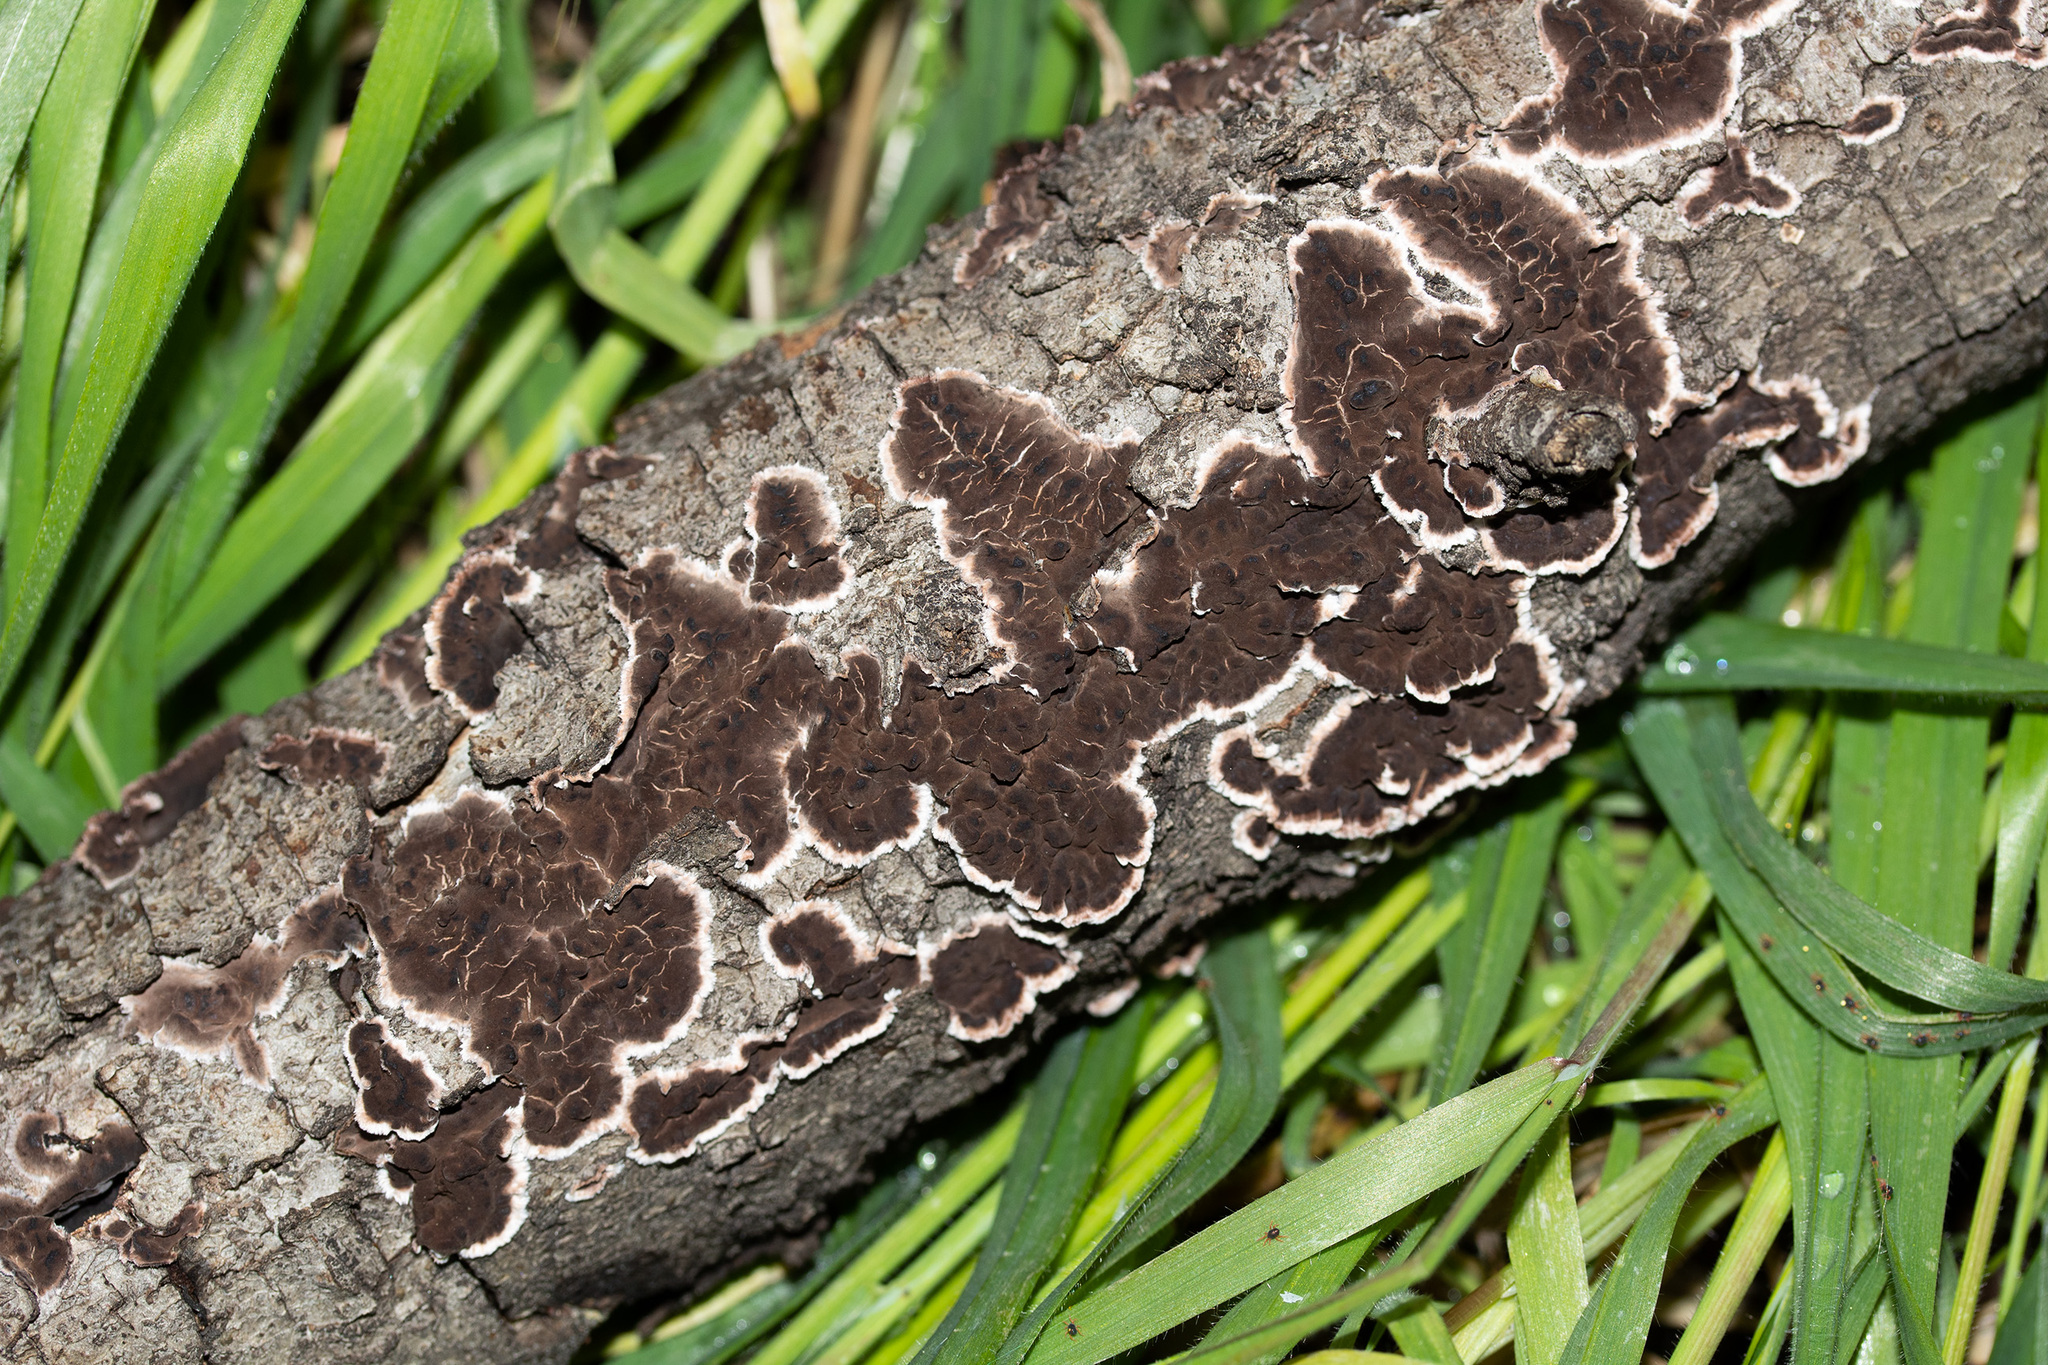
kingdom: Fungi
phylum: Basidiomycota
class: Agaricomycetes
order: Russulales
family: Peniophoraceae
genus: Peniophora
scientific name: Peniophora albobadia
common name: Giraffe spots
